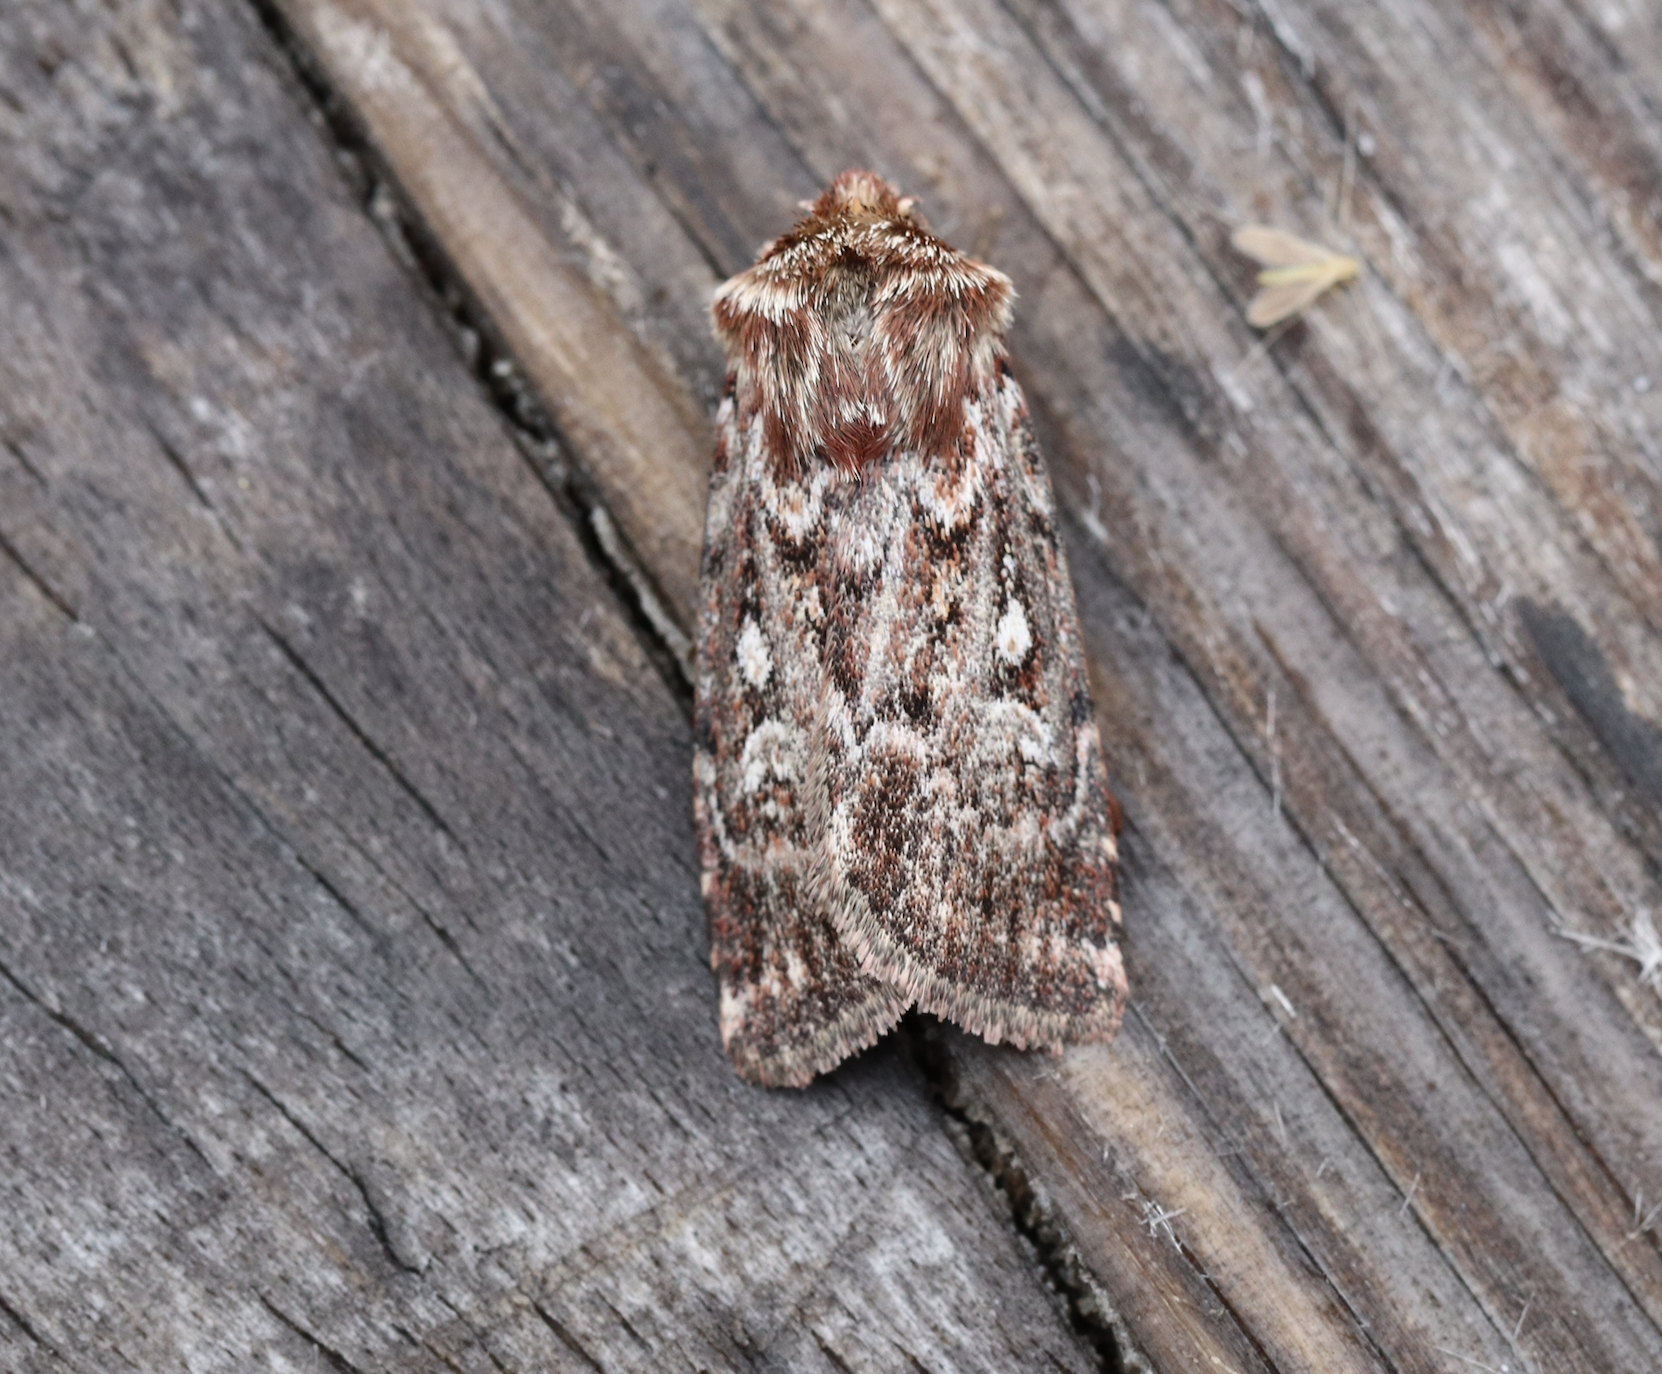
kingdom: Animalia
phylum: Arthropoda
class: Insecta
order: Lepidoptera
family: Noctuidae
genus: Lycophotia
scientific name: Lycophotia porphyrea
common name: True lover's knot
